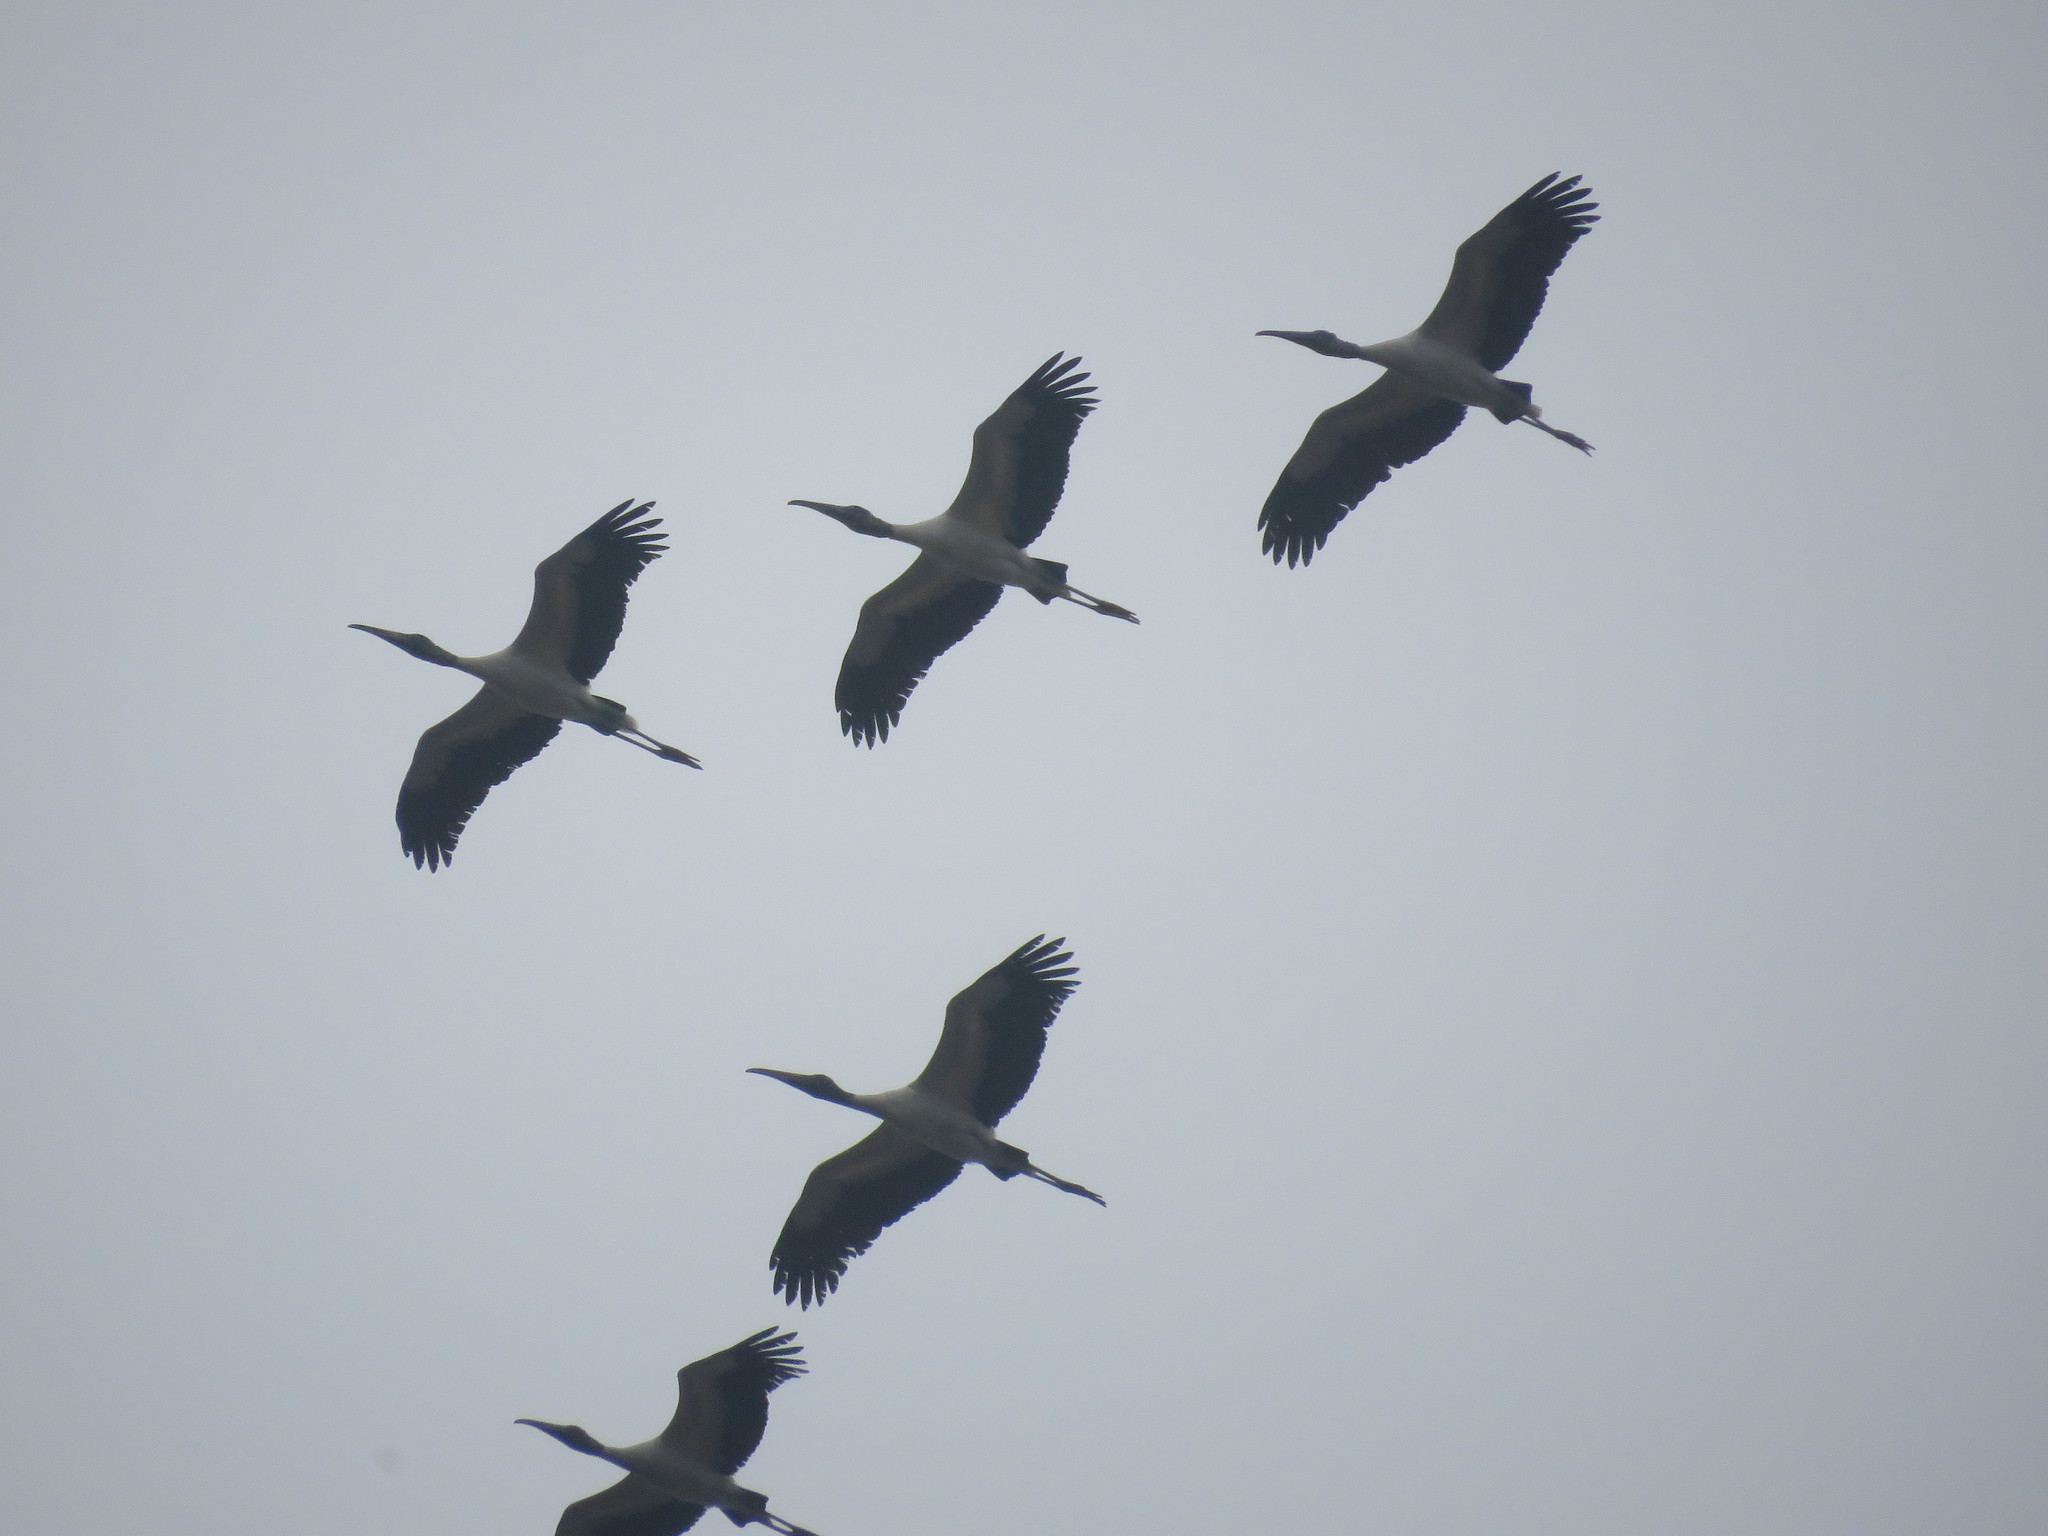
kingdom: Animalia
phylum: Chordata
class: Aves
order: Ciconiiformes
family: Ciconiidae
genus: Mycteria
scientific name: Mycteria americana
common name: Wood stork
